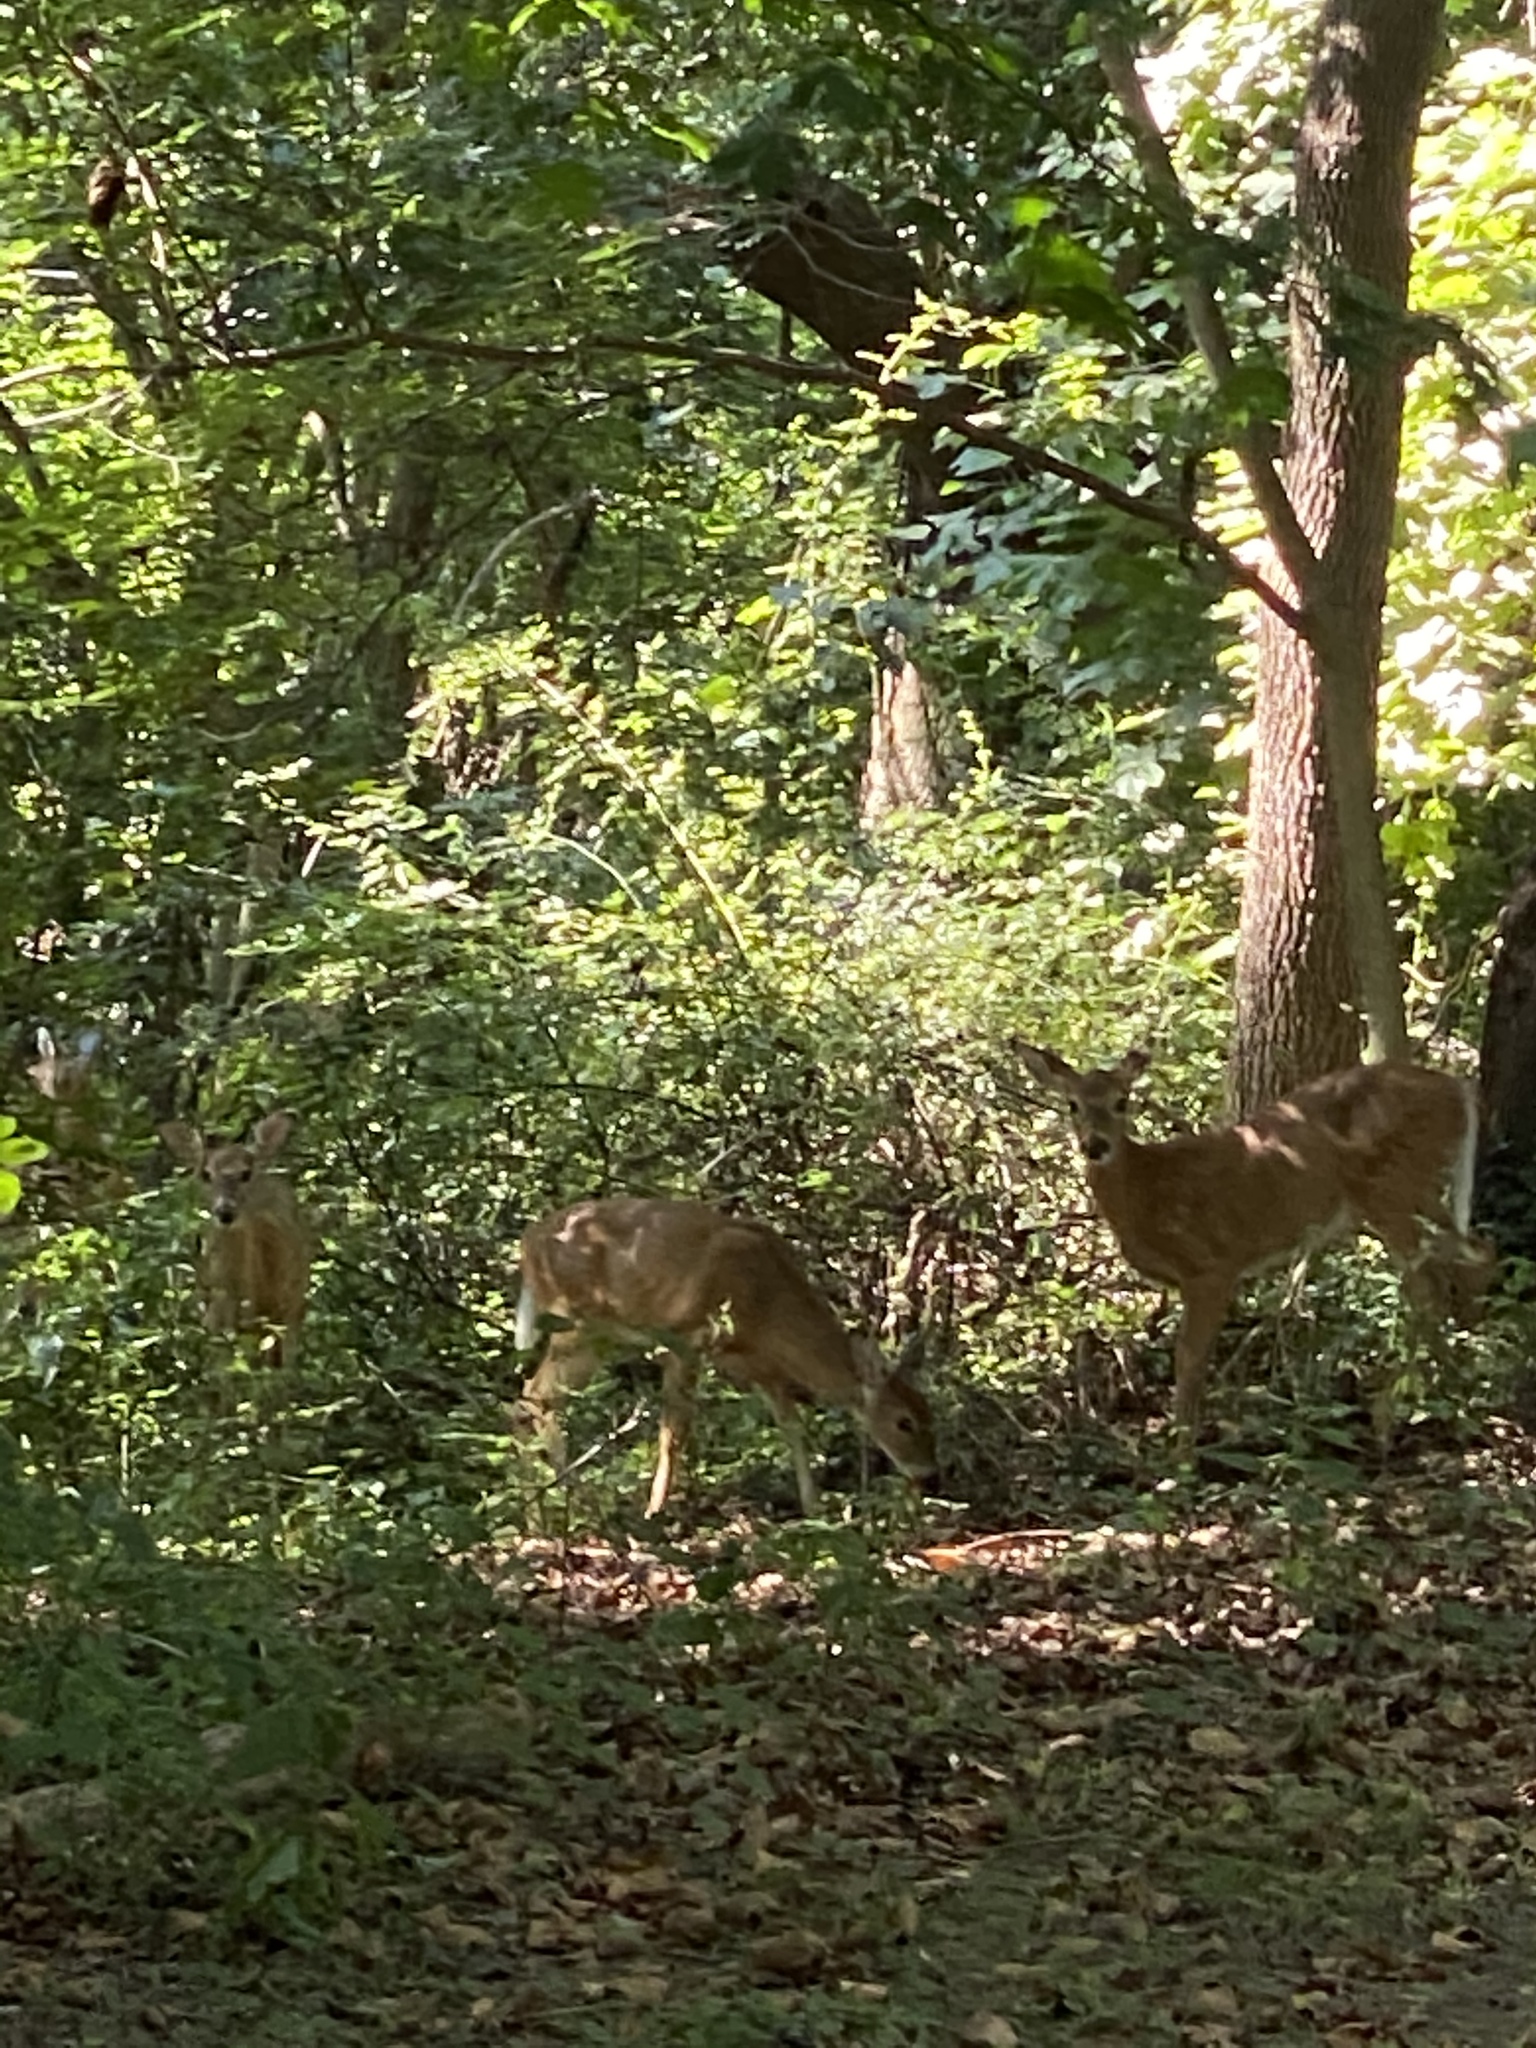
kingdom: Animalia
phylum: Chordata
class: Mammalia
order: Artiodactyla
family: Cervidae
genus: Odocoileus
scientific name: Odocoileus virginianus
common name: White-tailed deer
